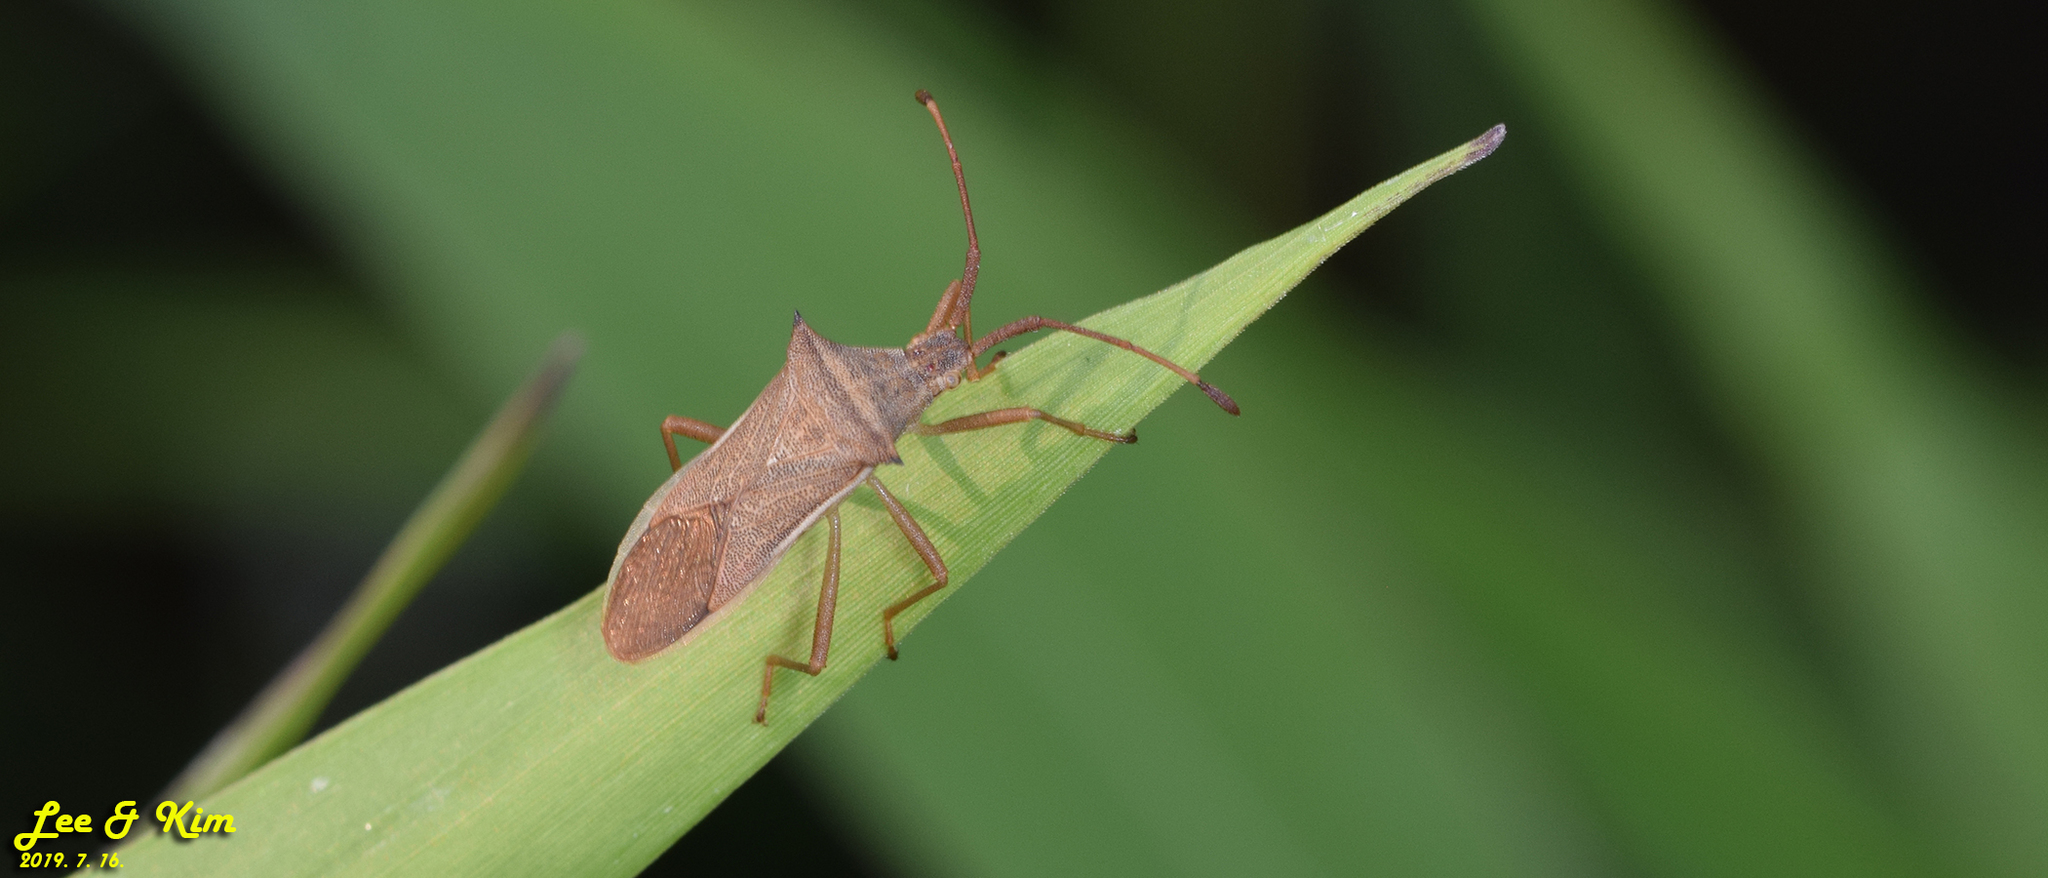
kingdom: Animalia
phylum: Arthropoda
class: Insecta
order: Hemiptera
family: Coreidae
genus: Cletus
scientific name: Cletus punctiger
